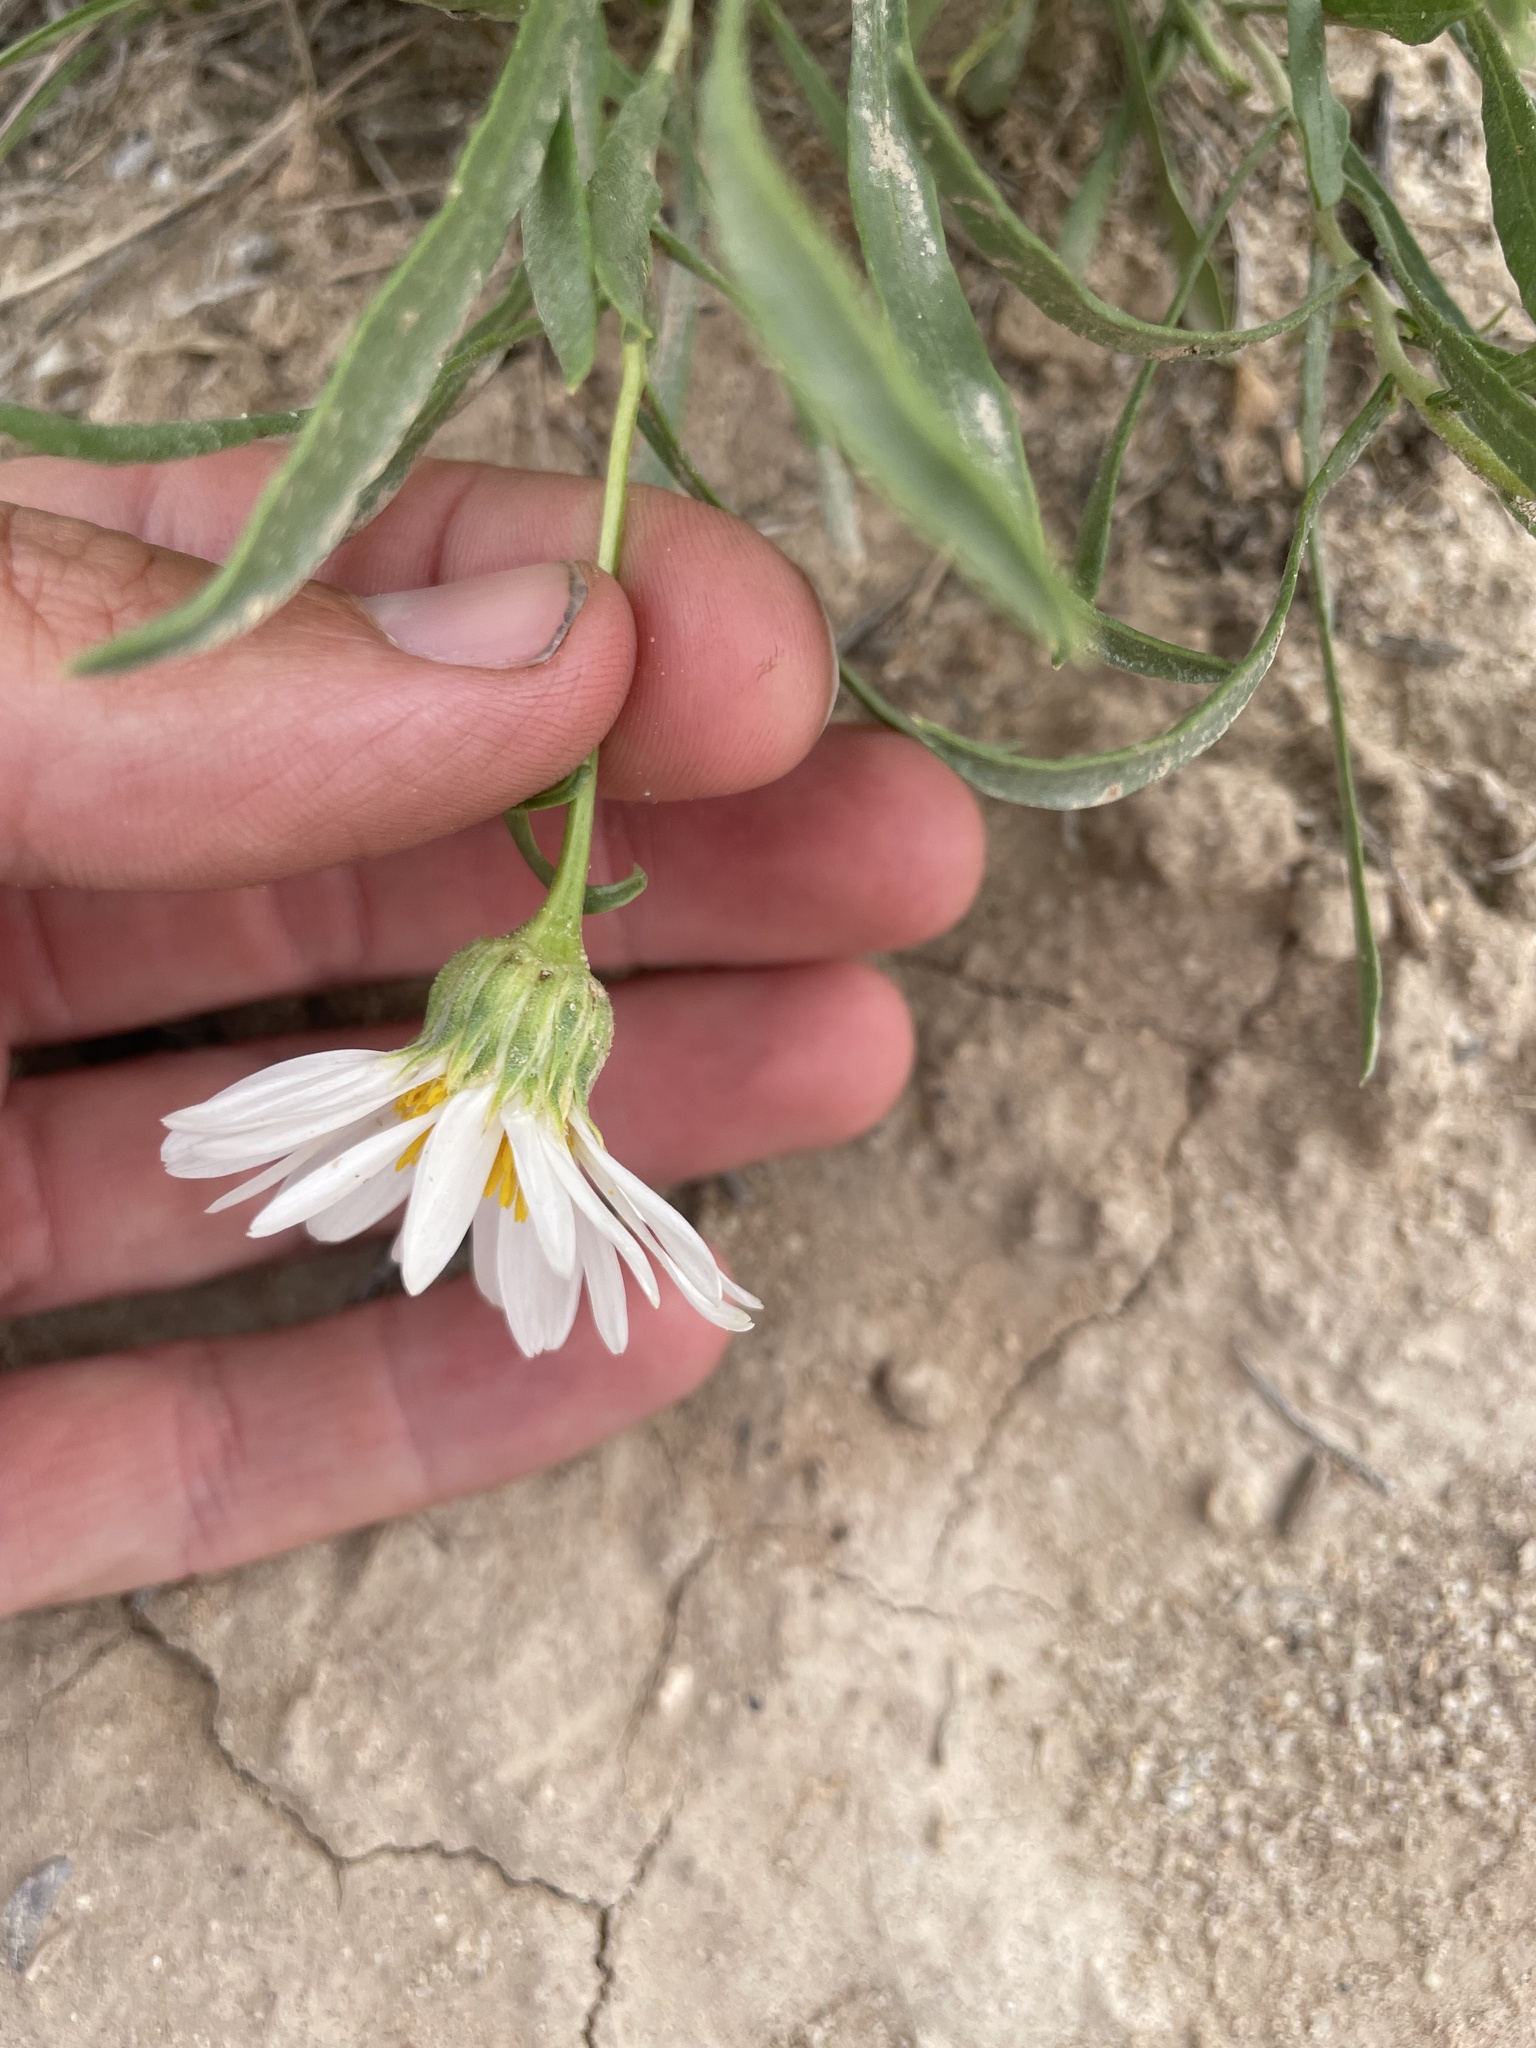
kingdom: Plantae
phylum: Tracheophyta
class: Magnoliopsida
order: Asterales
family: Asteraceae
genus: Xylorhiza
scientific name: Xylorhiza glabriuscula
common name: Smooth woody-aster
